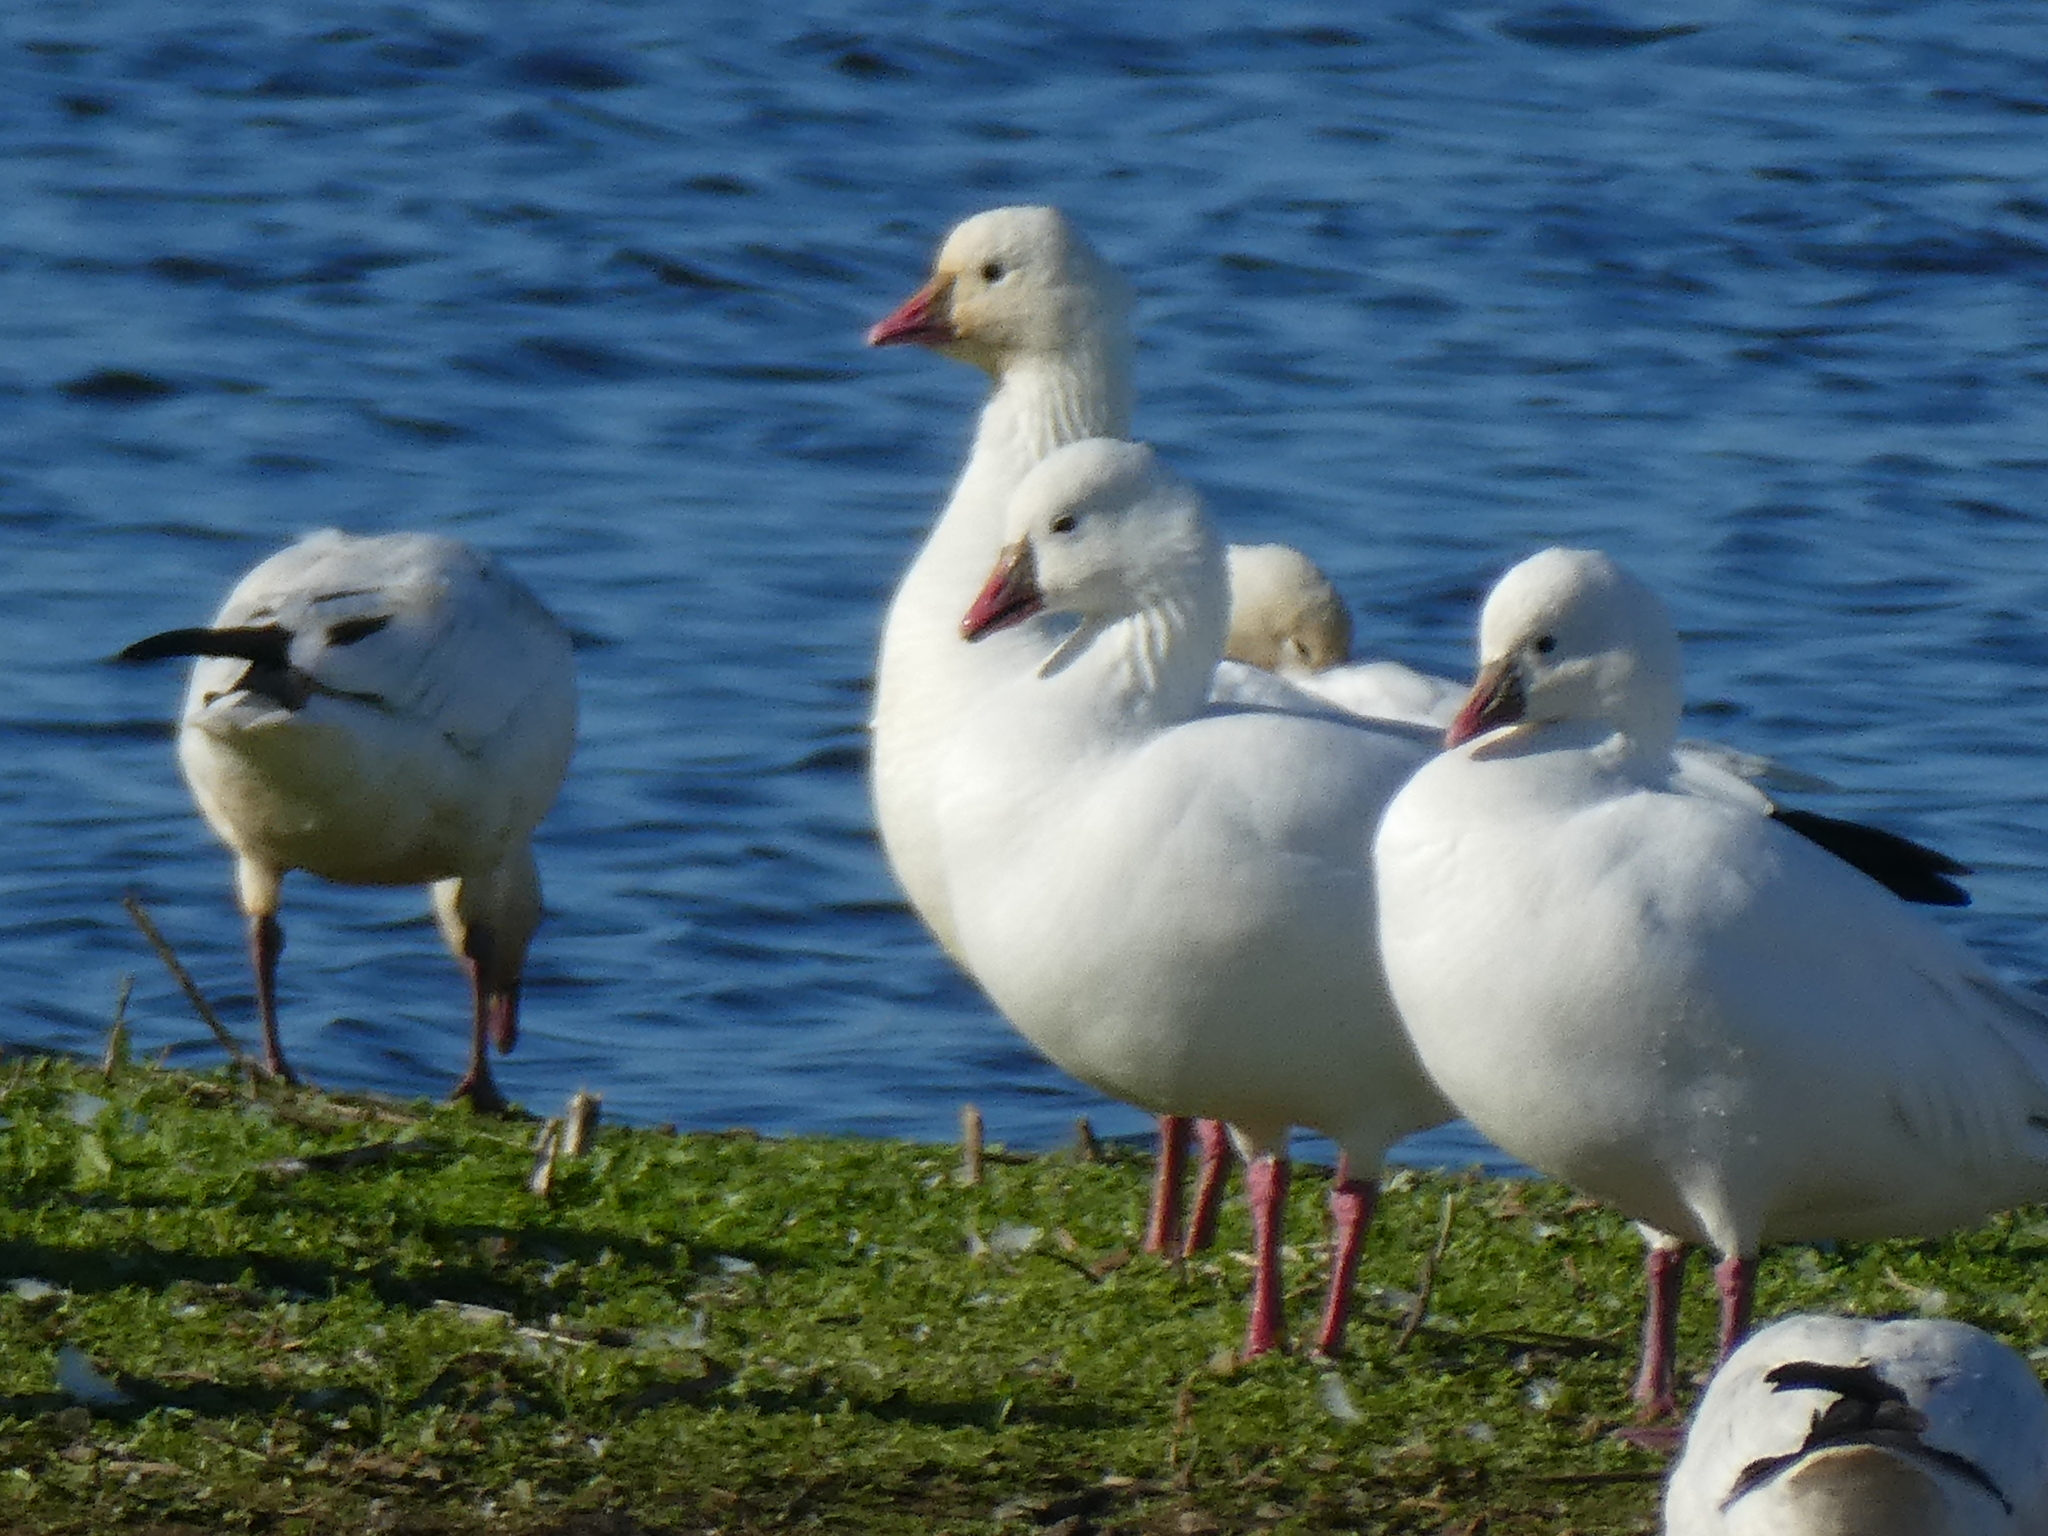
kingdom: Animalia
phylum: Chordata
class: Aves
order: Anseriformes
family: Anatidae
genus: Anser
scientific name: Anser rossii
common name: Ross's goose
